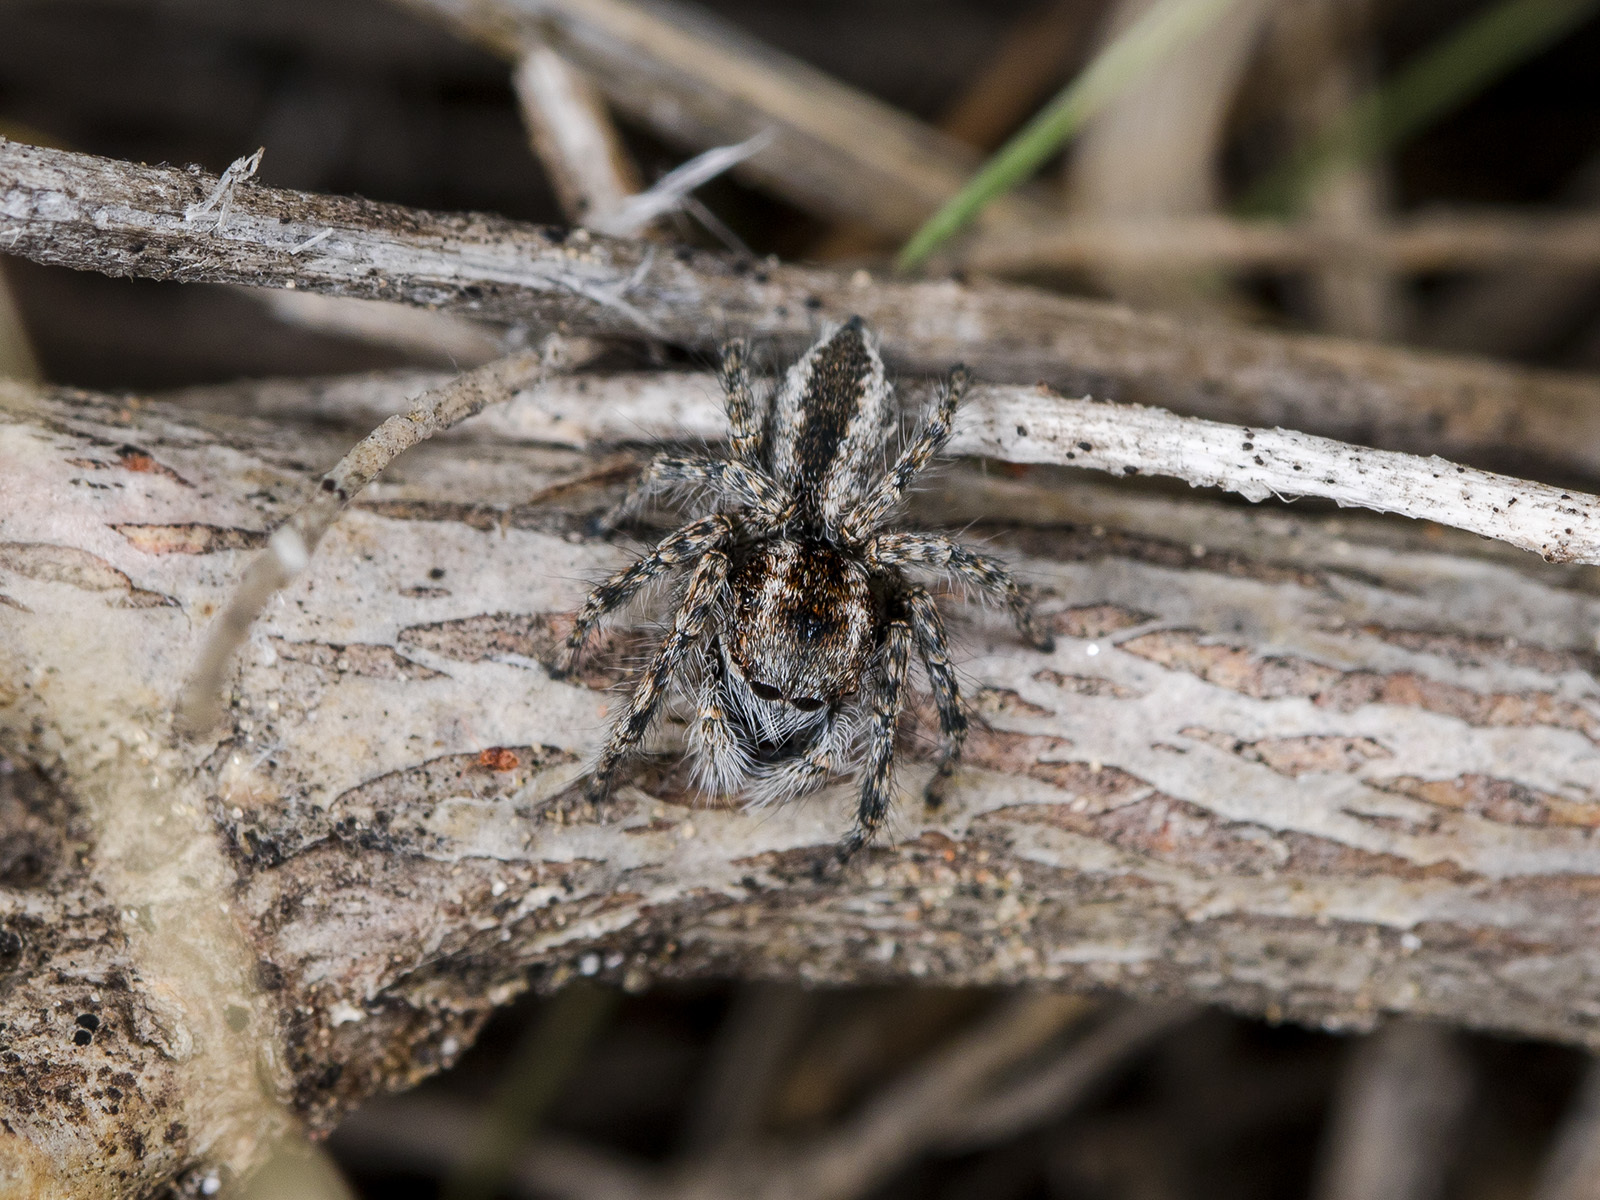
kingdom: Animalia
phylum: Arthropoda
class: Arachnida
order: Araneae
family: Salticidae
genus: Mogrus
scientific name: Mogrus larisae
